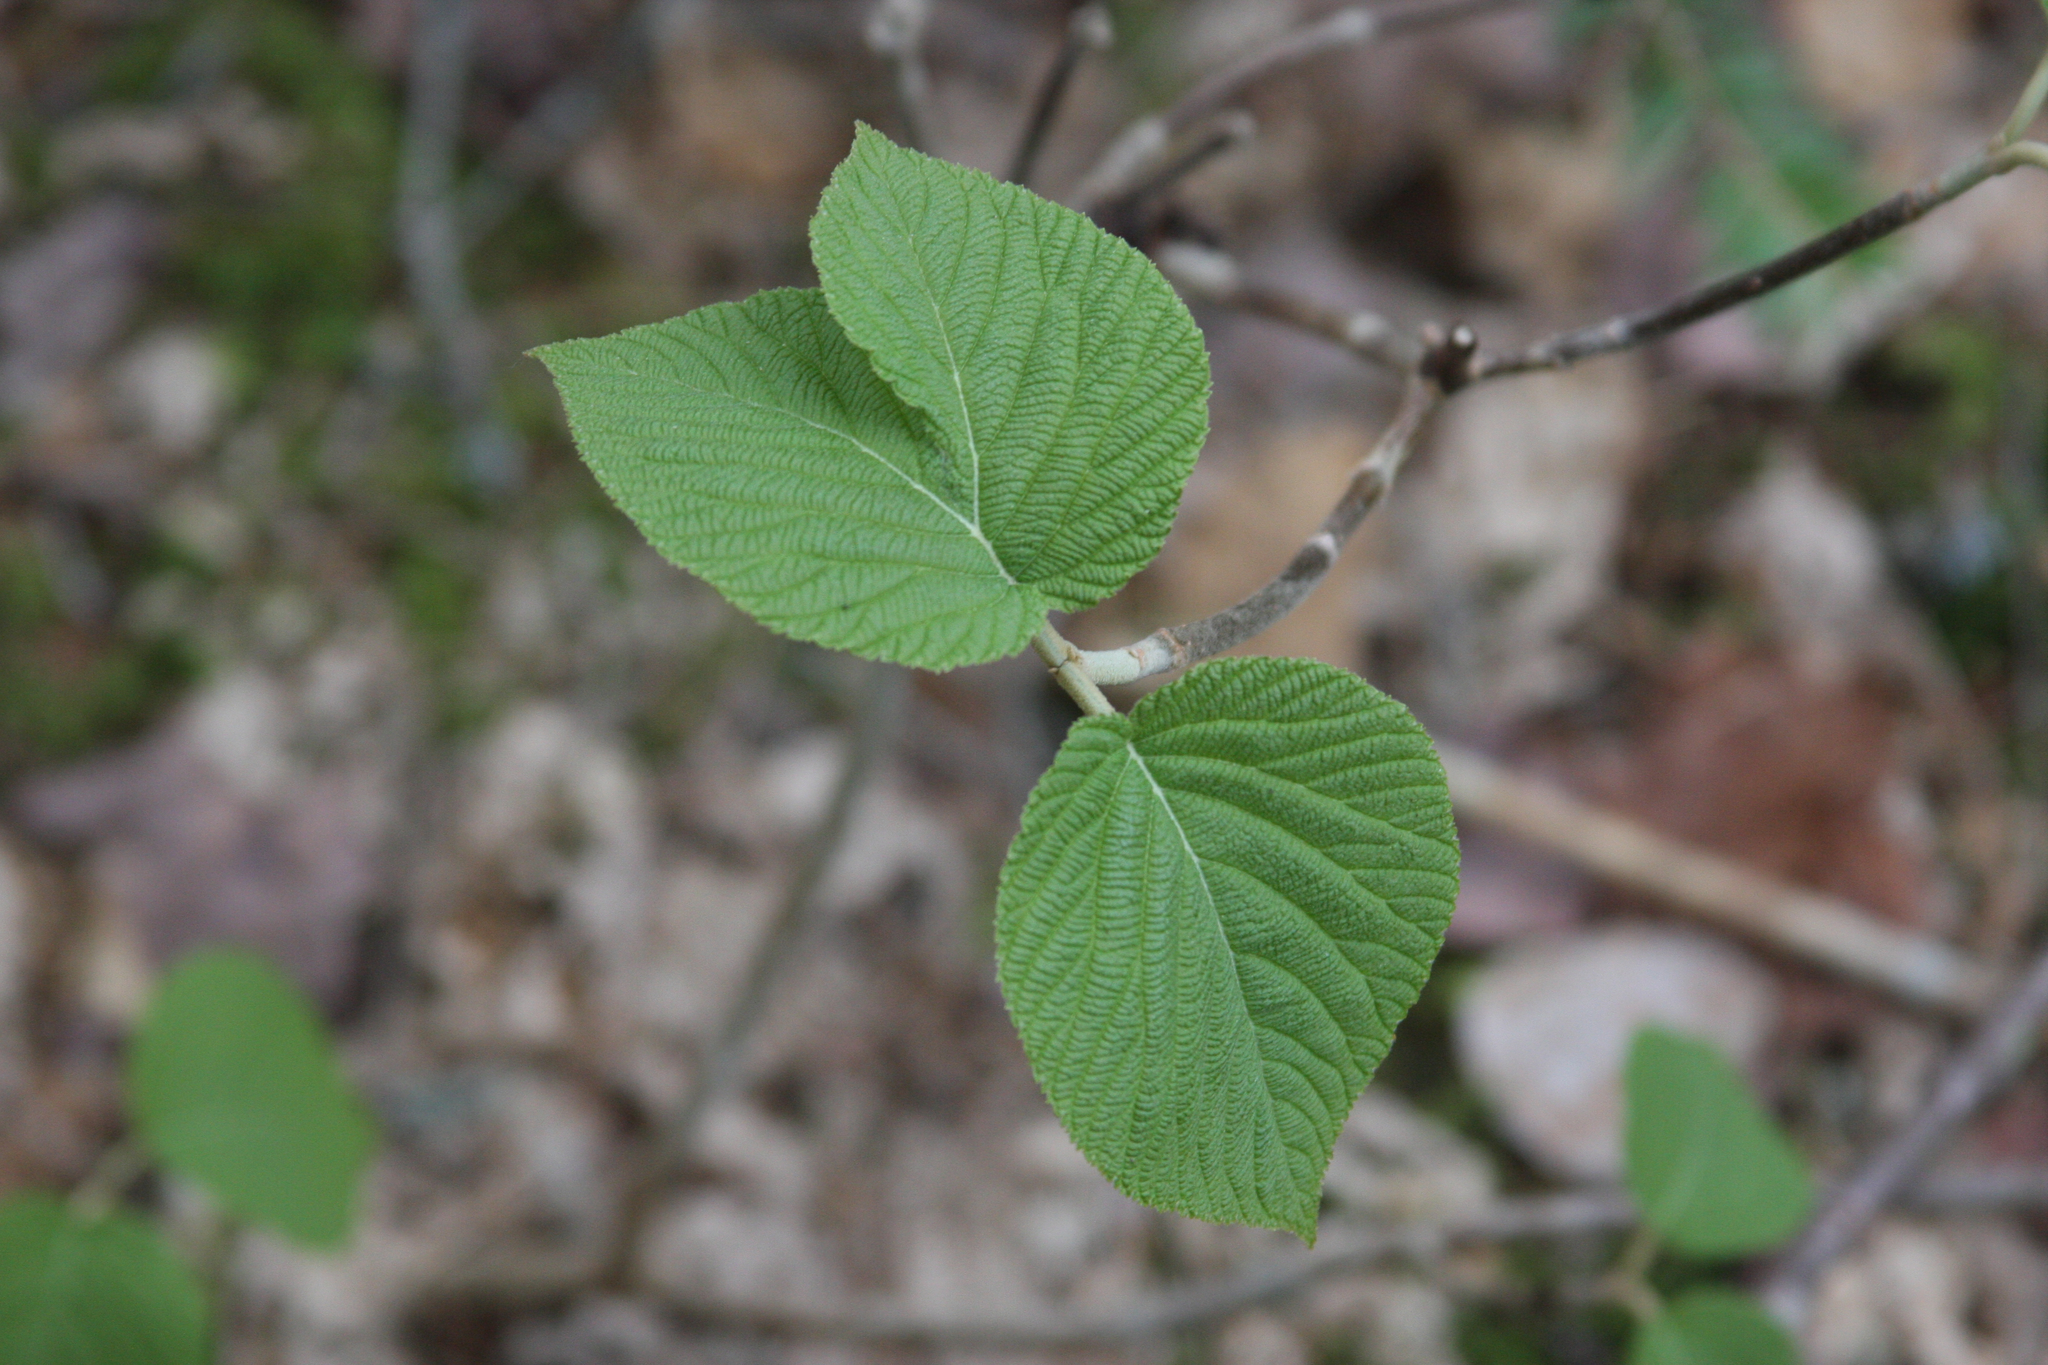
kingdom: Plantae
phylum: Tracheophyta
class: Magnoliopsida
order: Dipsacales
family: Viburnaceae
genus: Viburnum
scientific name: Viburnum lantanoides
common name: Hobblebush
